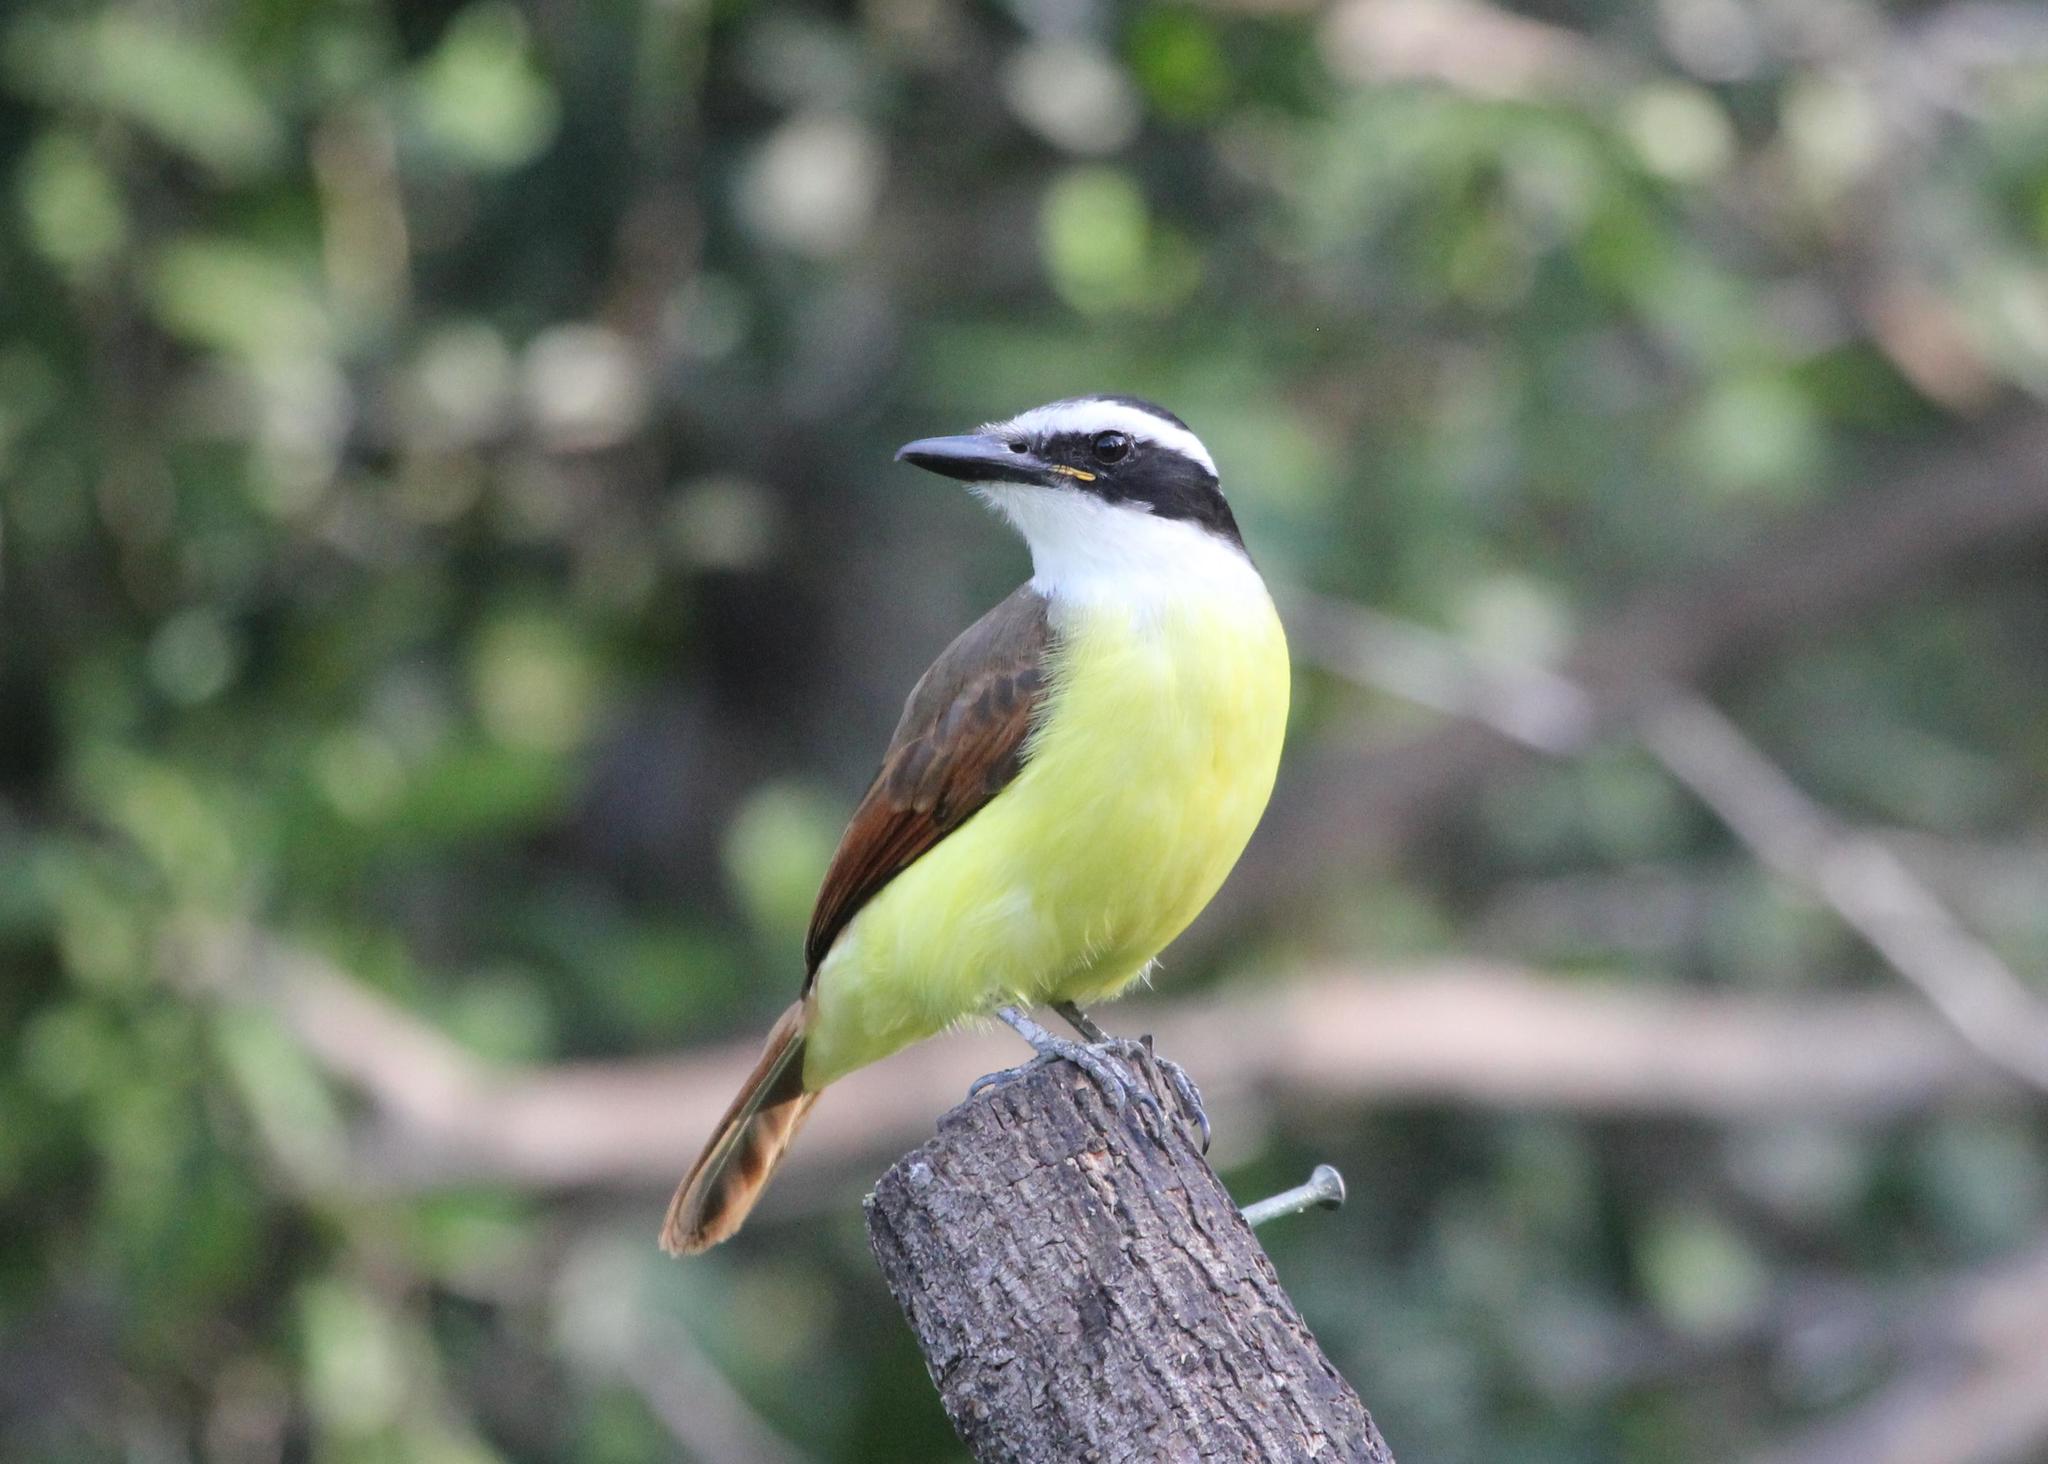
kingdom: Animalia
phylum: Chordata
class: Aves
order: Passeriformes
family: Tyrannidae
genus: Pitangus
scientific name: Pitangus sulphuratus
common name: Great kiskadee
